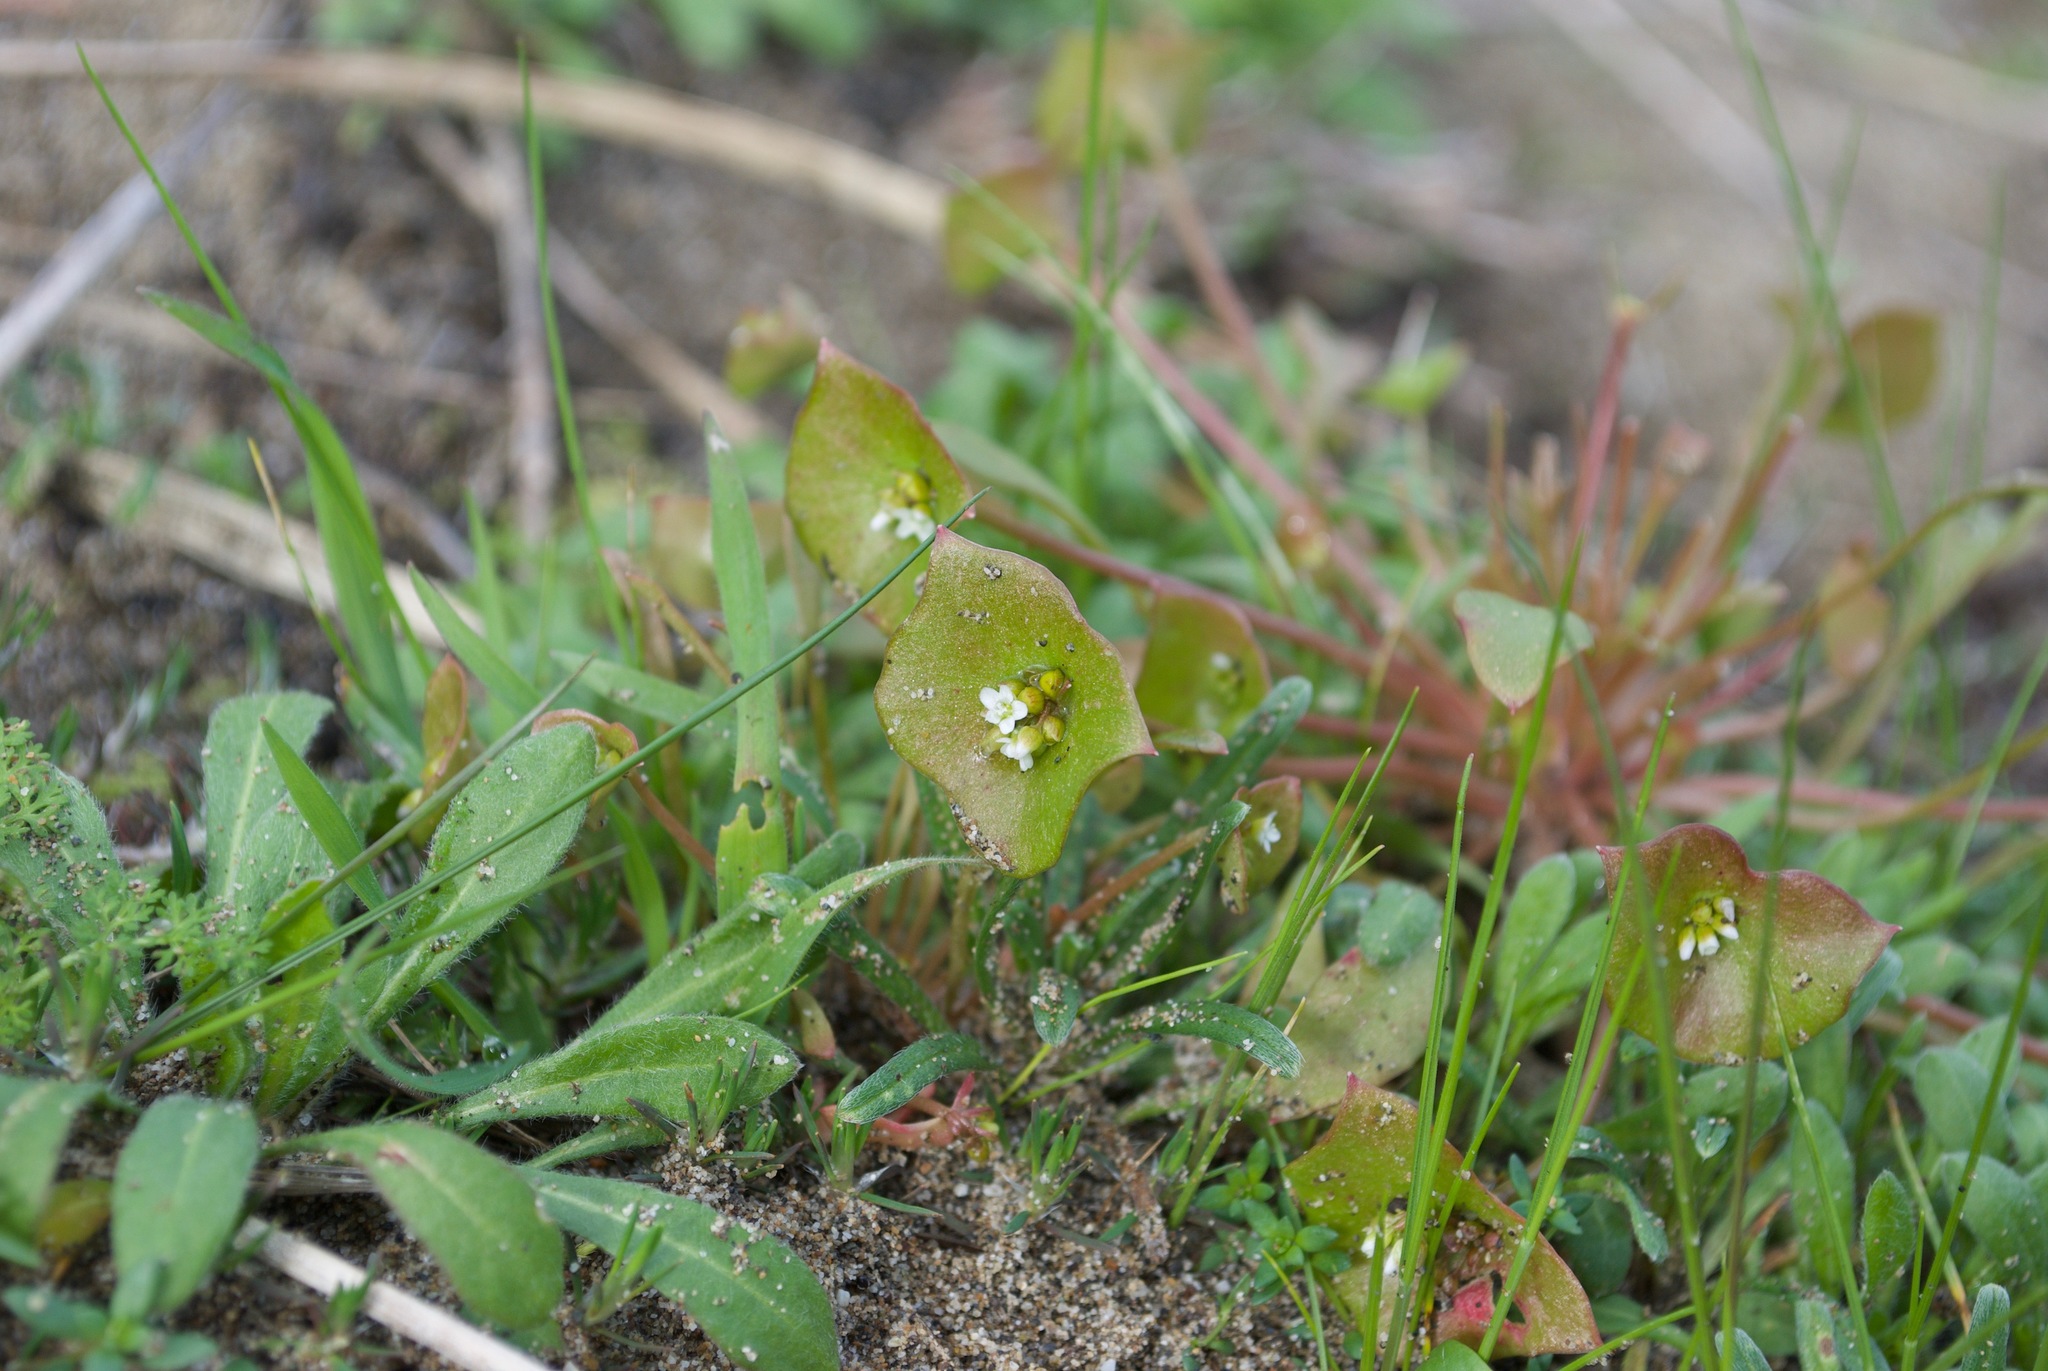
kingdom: Plantae
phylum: Tracheophyta
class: Magnoliopsida
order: Caryophyllales
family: Montiaceae
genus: Claytonia
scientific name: Claytonia perfoliata
